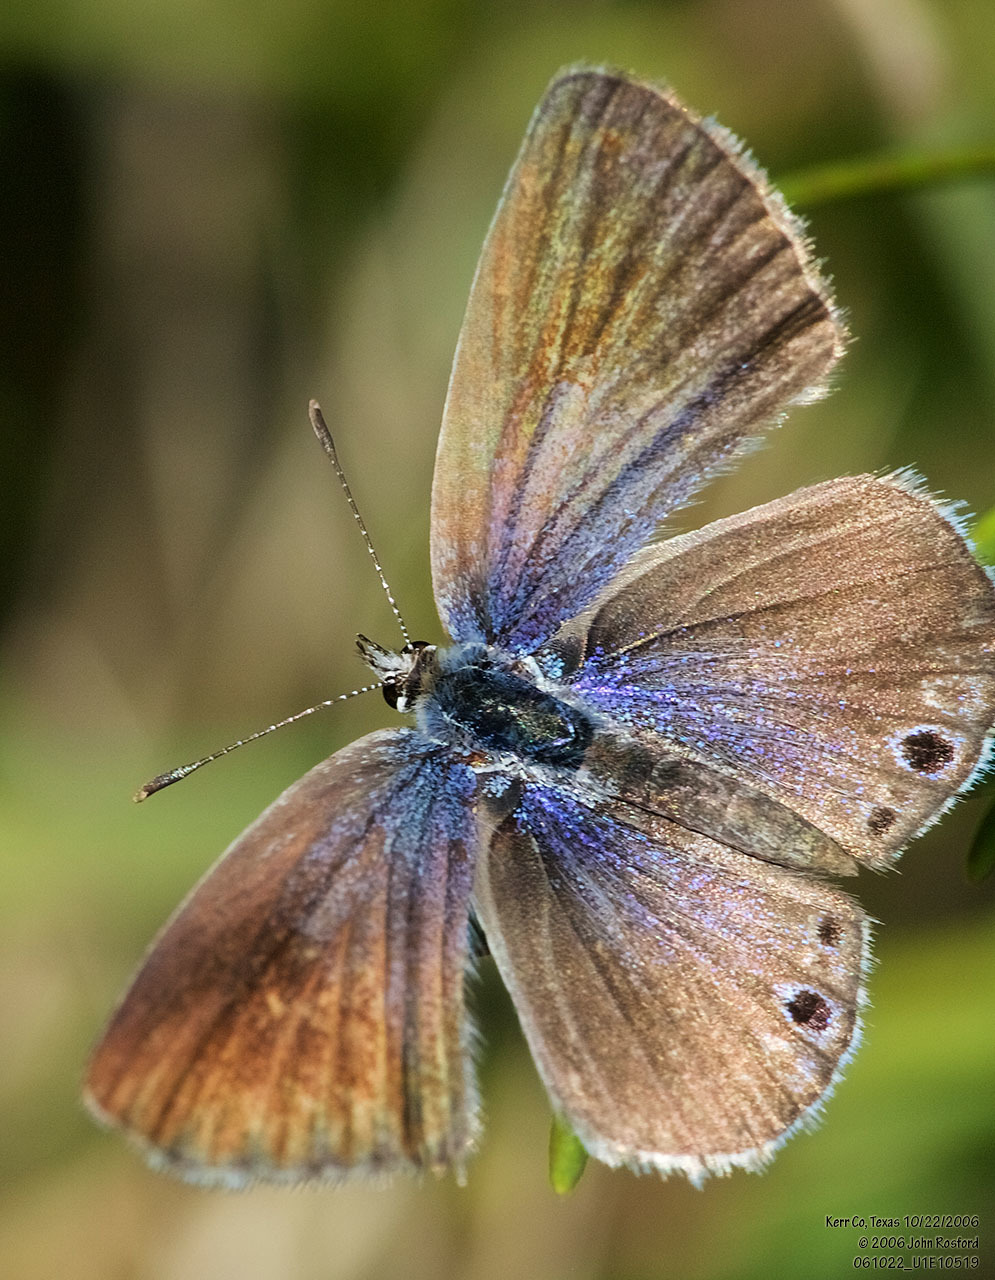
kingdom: Animalia
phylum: Arthropoda
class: Insecta
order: Lepidoptera
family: Lycaenidae
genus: Echinargus
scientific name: Echinargus isola
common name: Reakirt's blue
